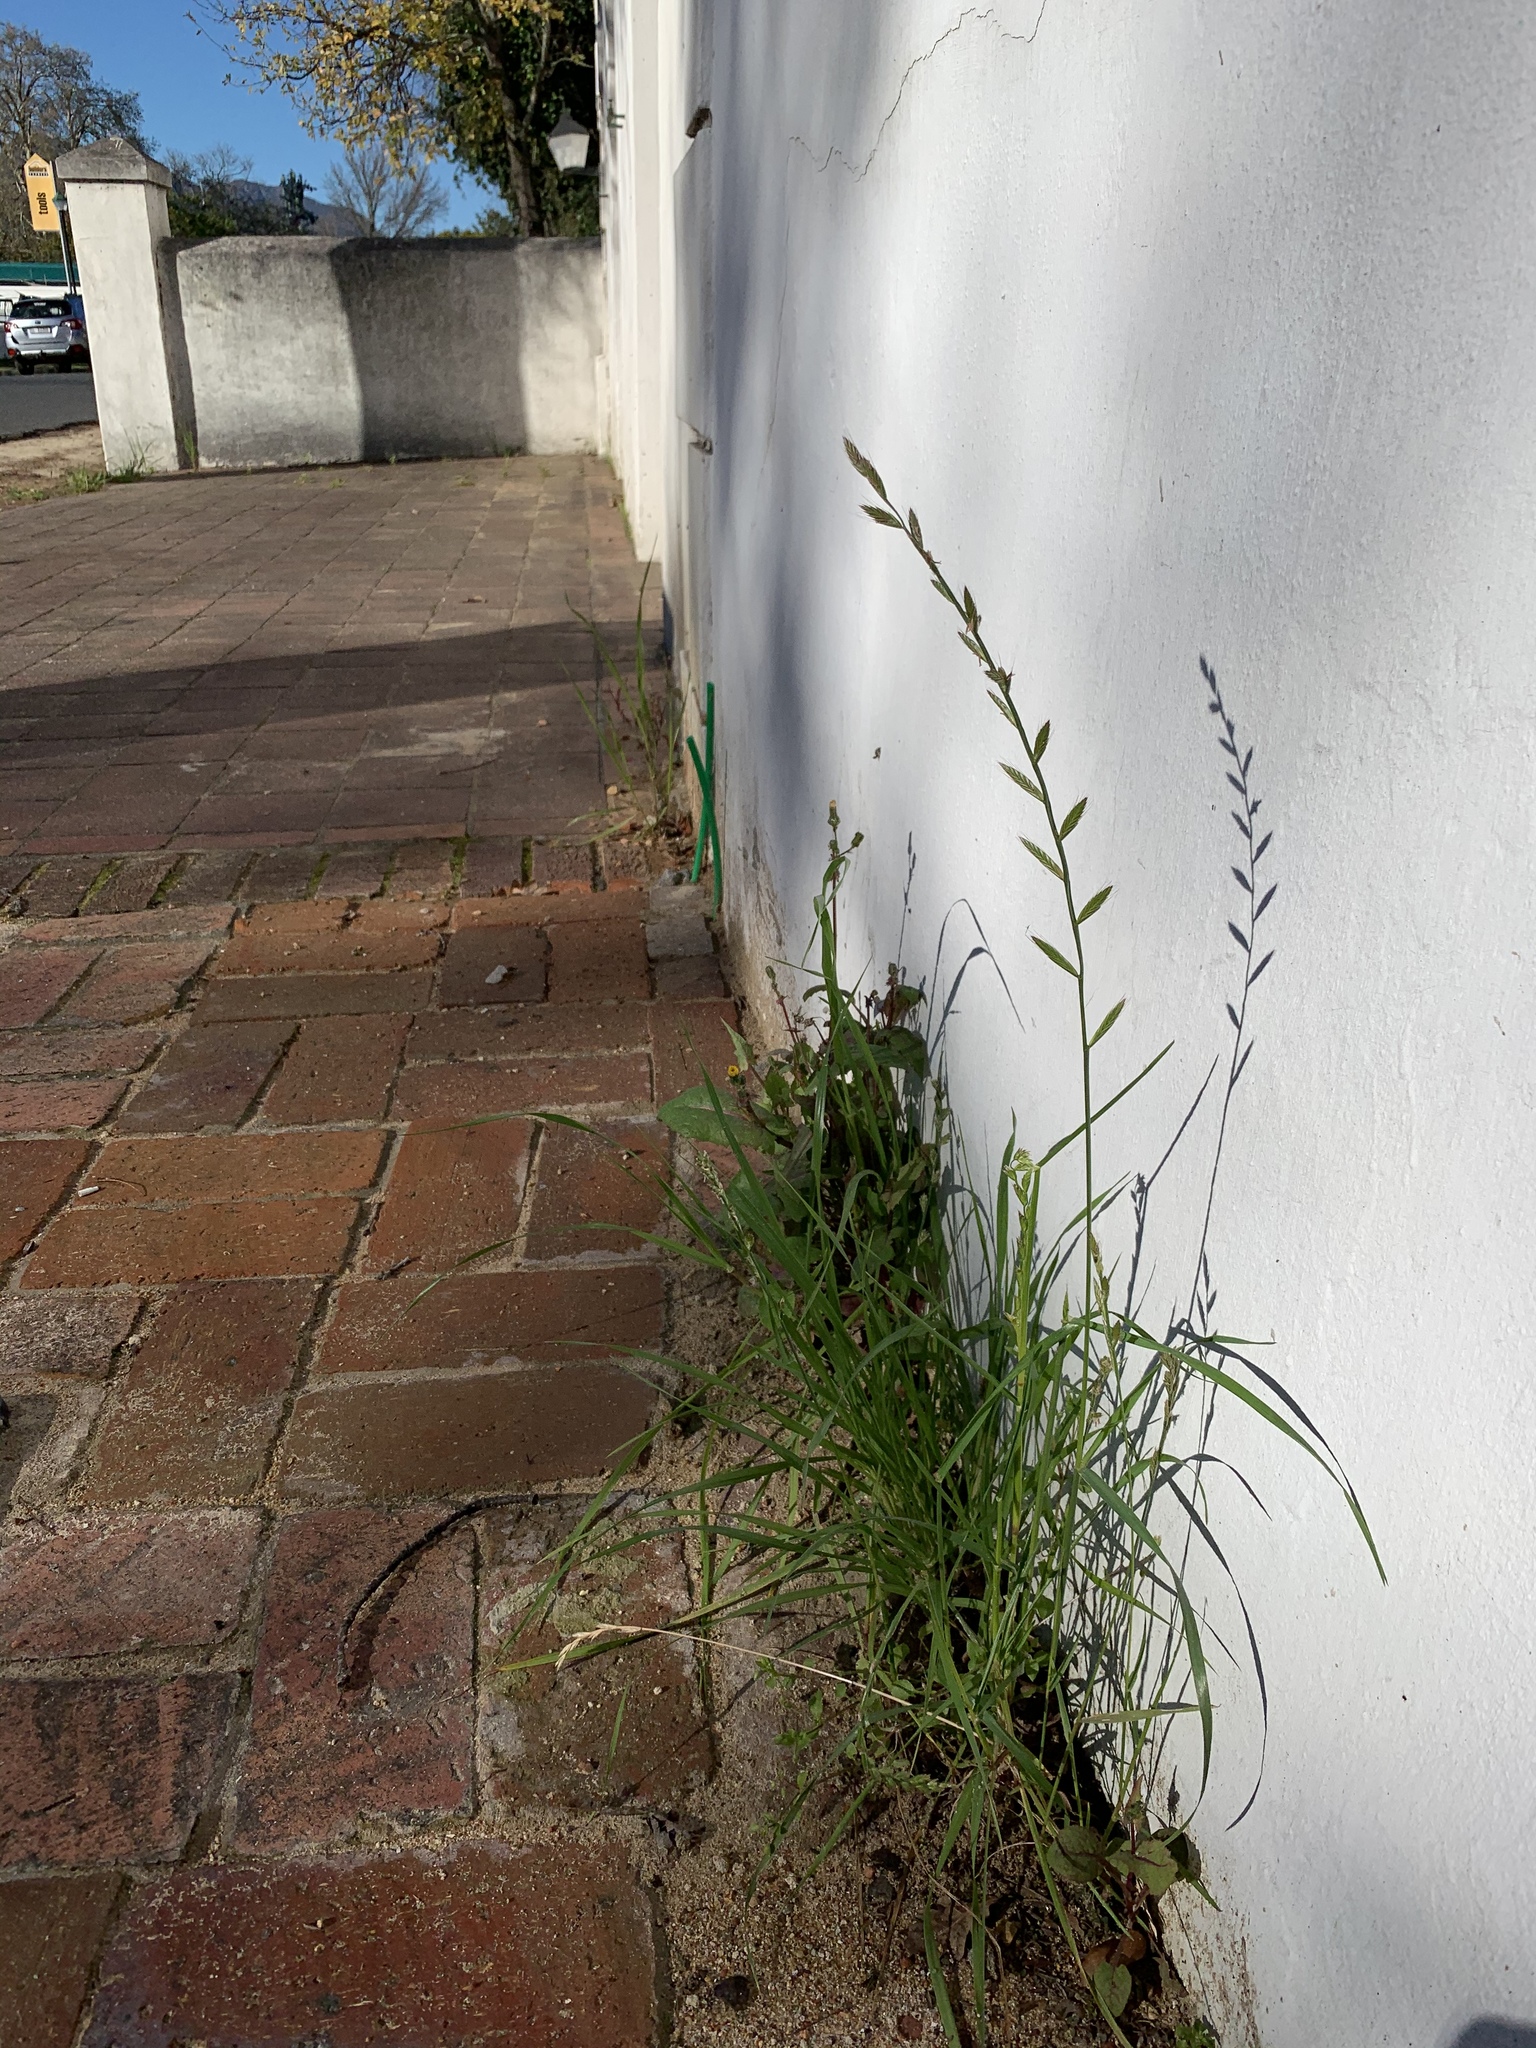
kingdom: Plantae
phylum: Tracheophyta
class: Liliopsida
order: Poales
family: Poaceae
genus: Lolium
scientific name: Lolium multiflorum
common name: Annual ryegrass
